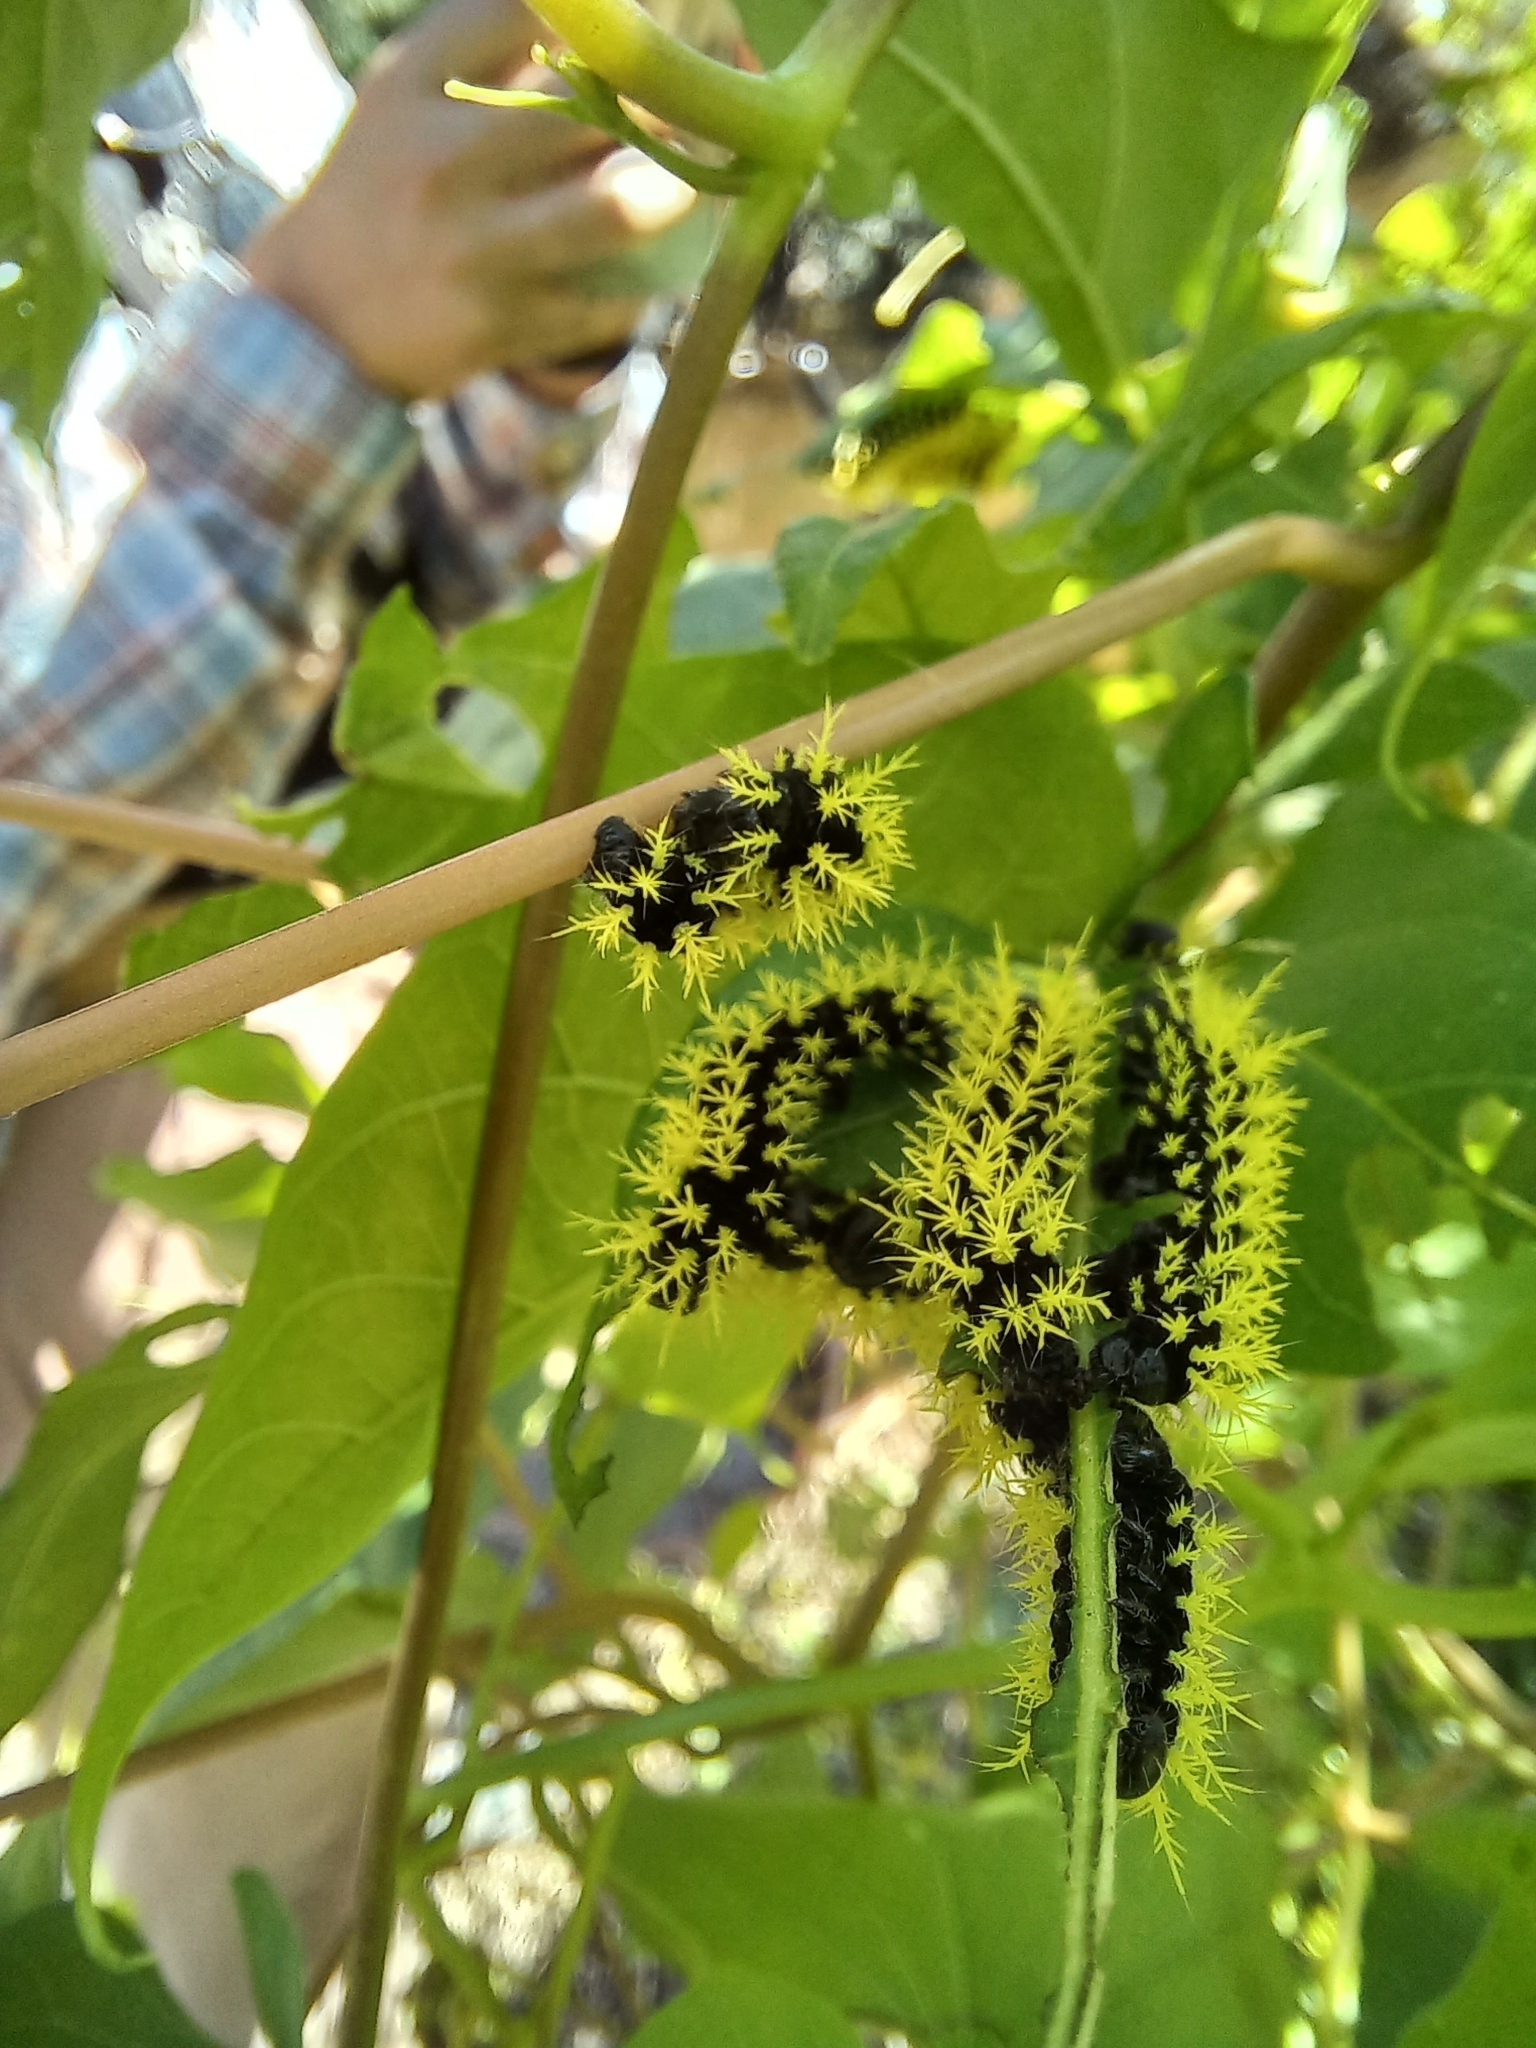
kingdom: Animalia
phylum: Arthropoda
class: Insecta
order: Lepidoptera
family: Saturniidae
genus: Leucanella
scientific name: Leucanella viridescens
